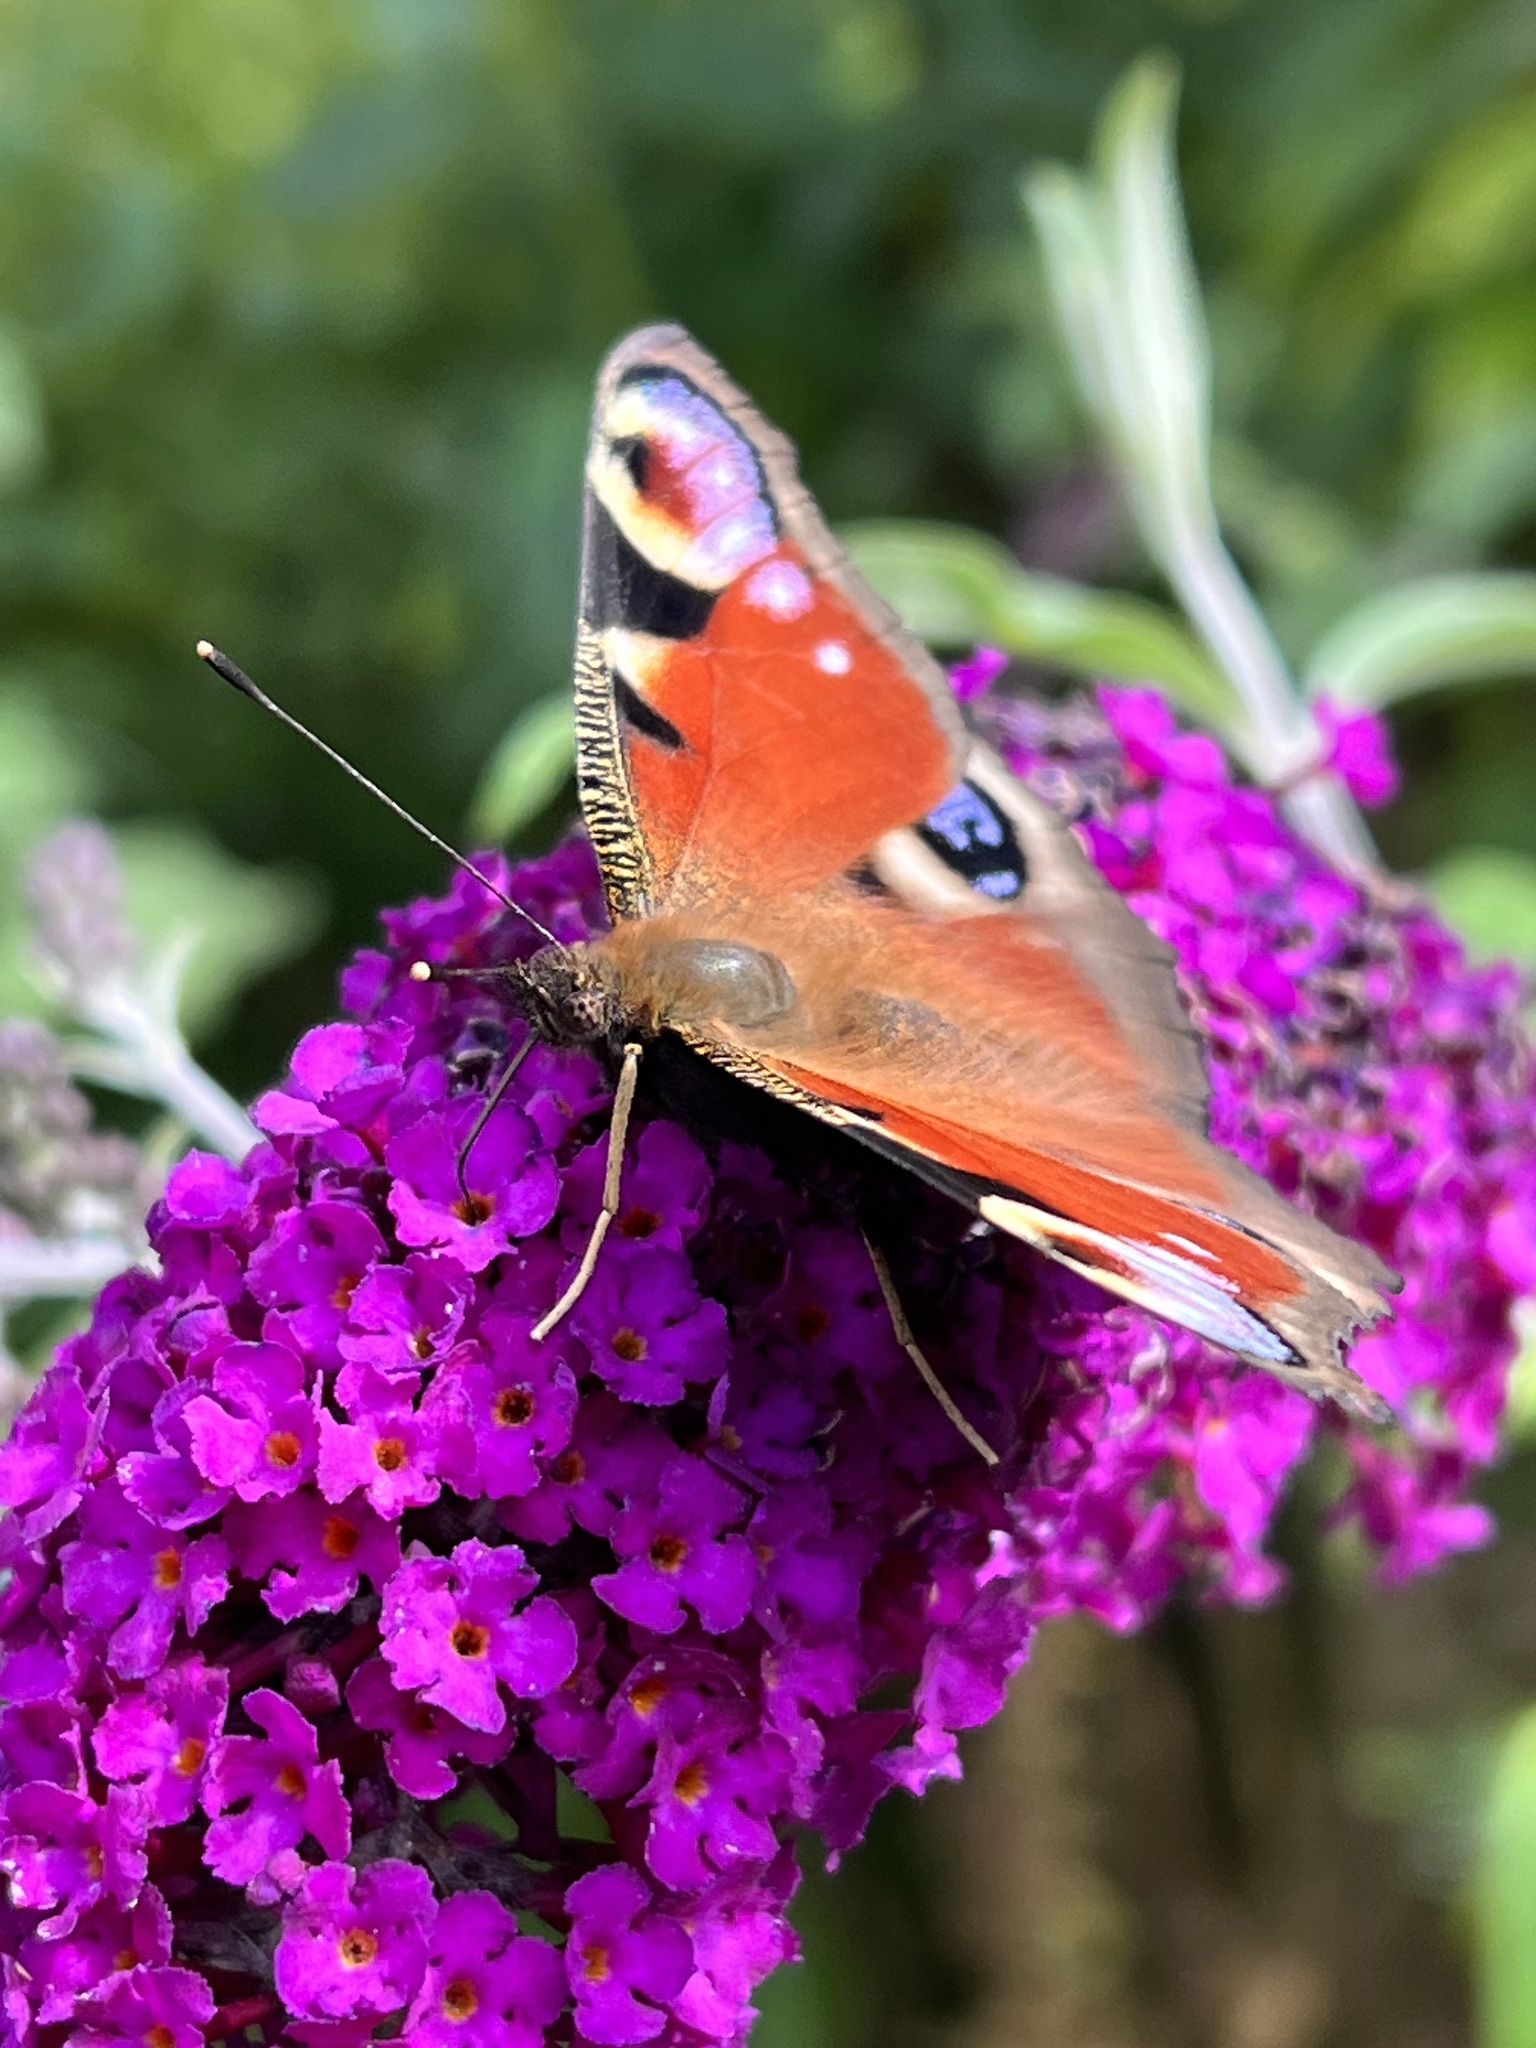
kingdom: Animalia
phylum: Arthropoda
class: Insecta
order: Lepidoptera
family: Nymphalidae
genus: Aglais
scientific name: Aglais io
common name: Peacock
